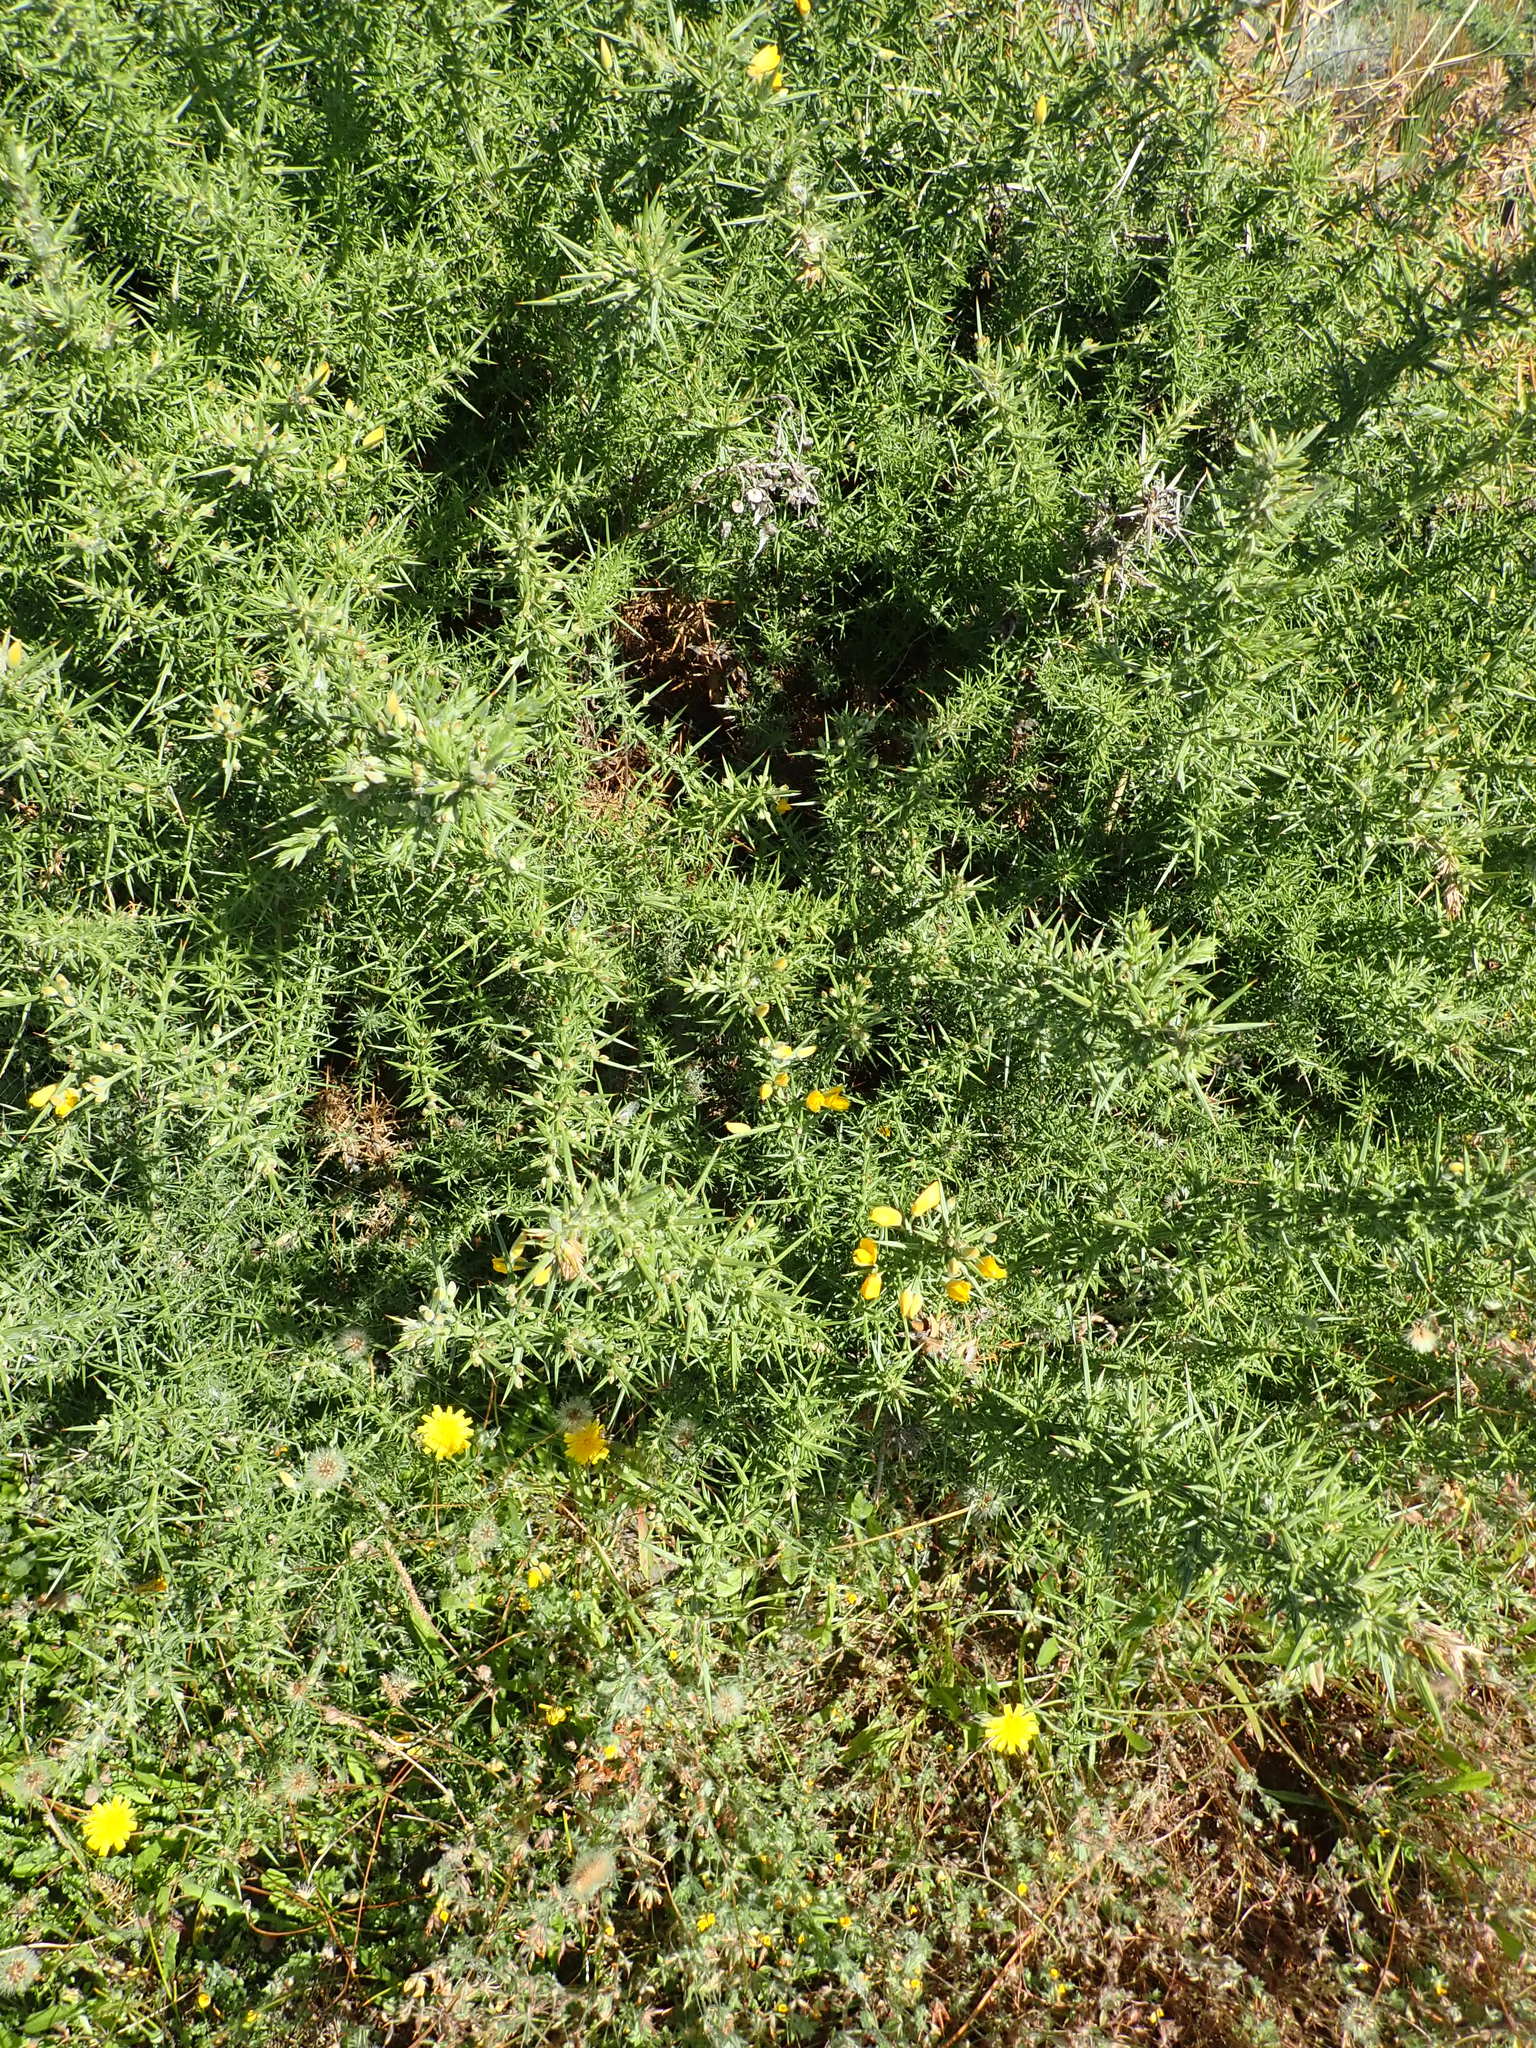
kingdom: Plantae
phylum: Tracheophyta
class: Magnoliopsida
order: Fabales
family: Fabaceae
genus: Ulex
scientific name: Ulex europaeus
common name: Common gorse
